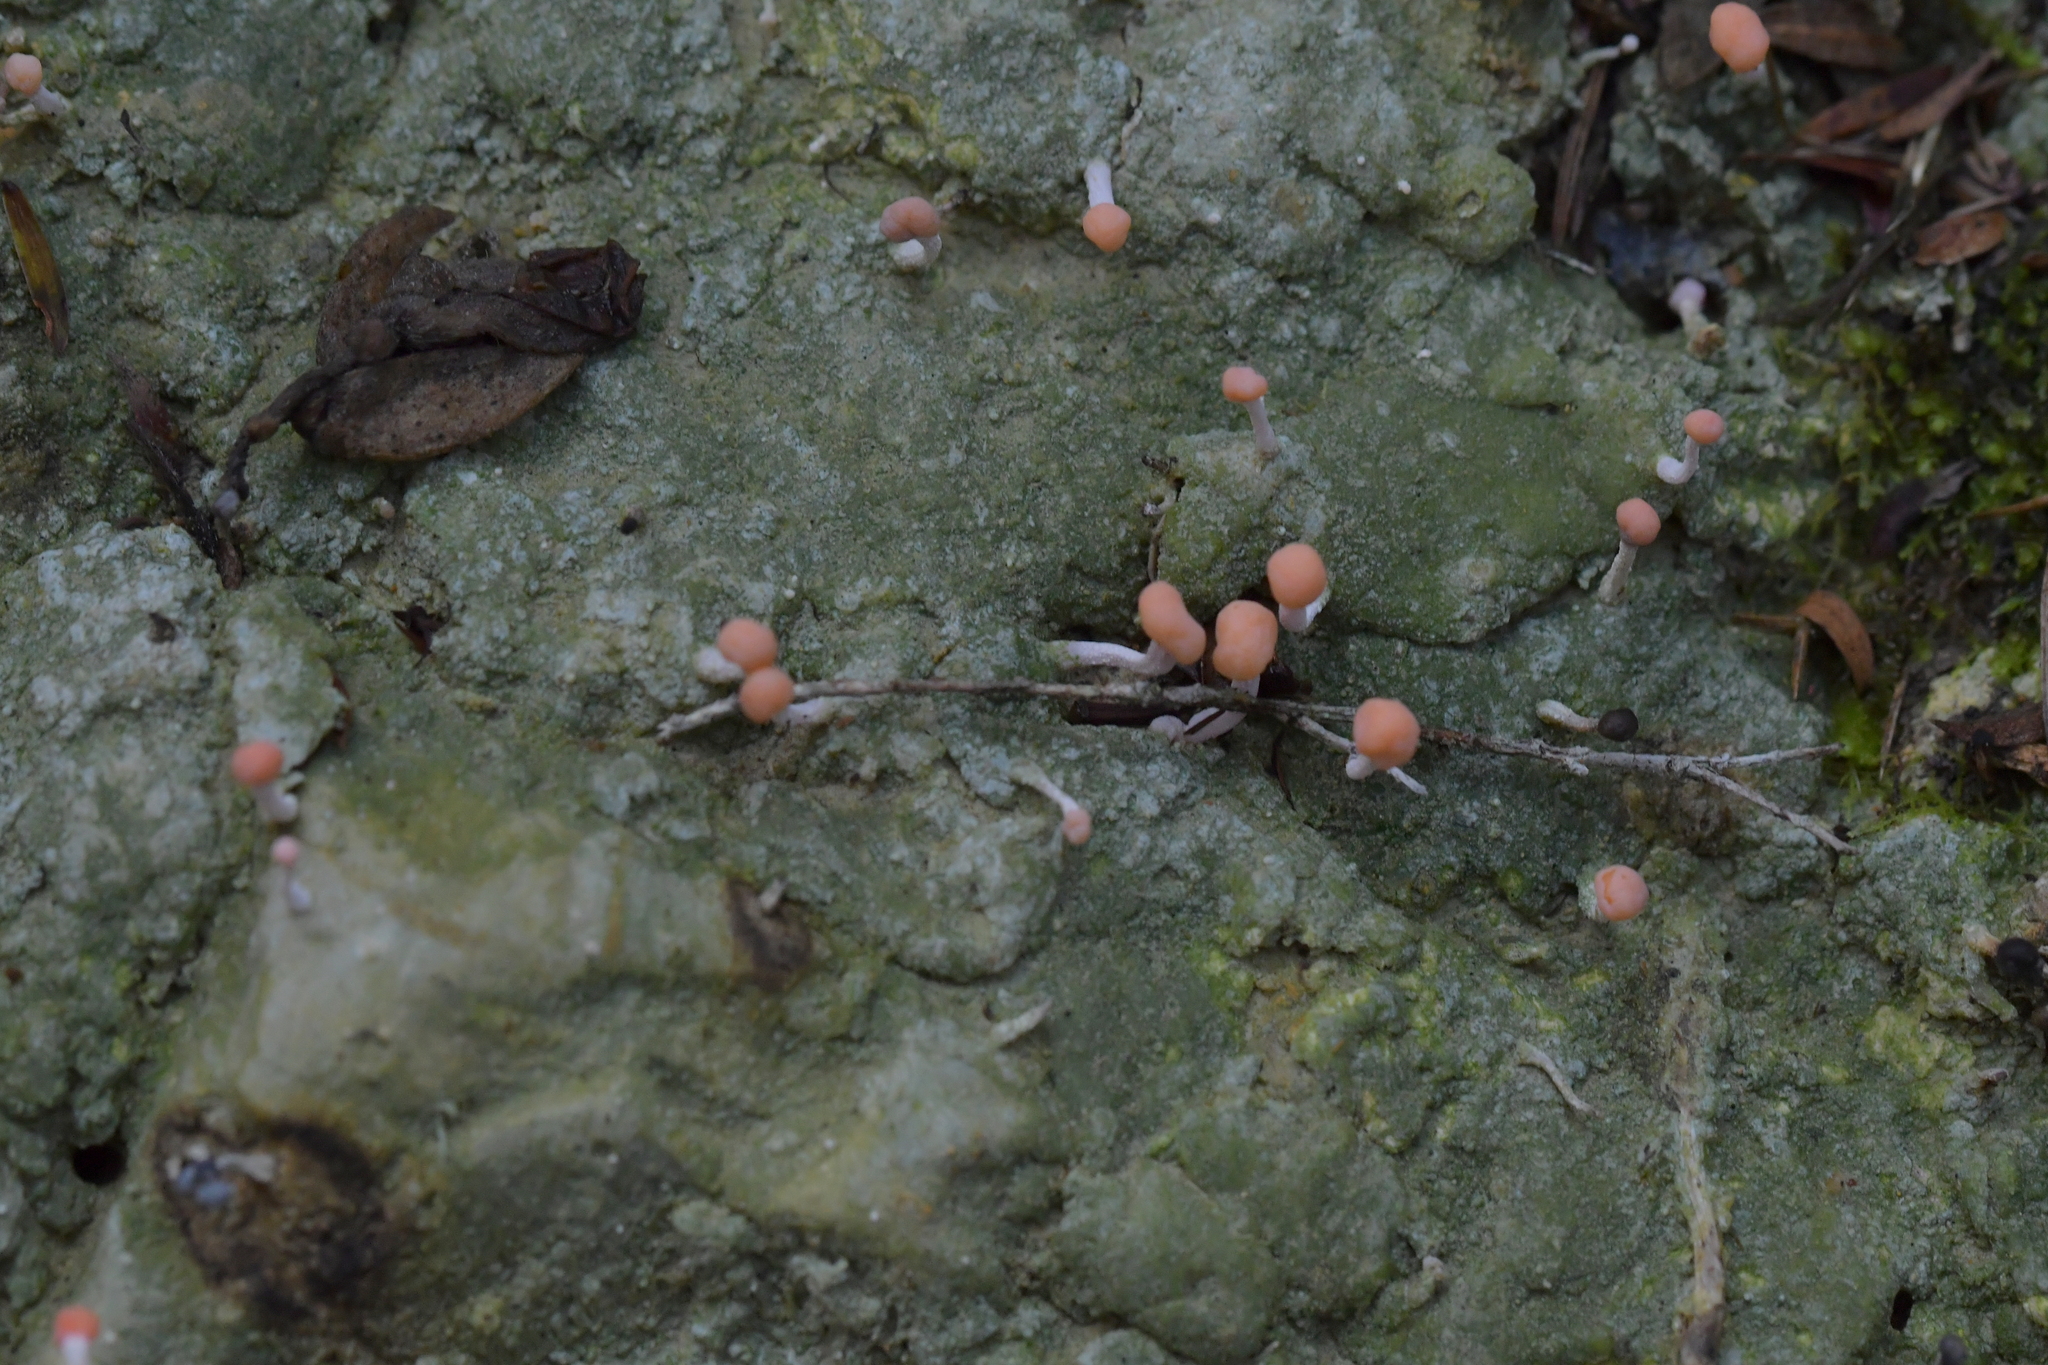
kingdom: Fungi
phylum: Ascomycota
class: Lecanoromycetes
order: Pertusariales
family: Icmadophilaceae
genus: Dibaeis
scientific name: Dibaeis arcuata
